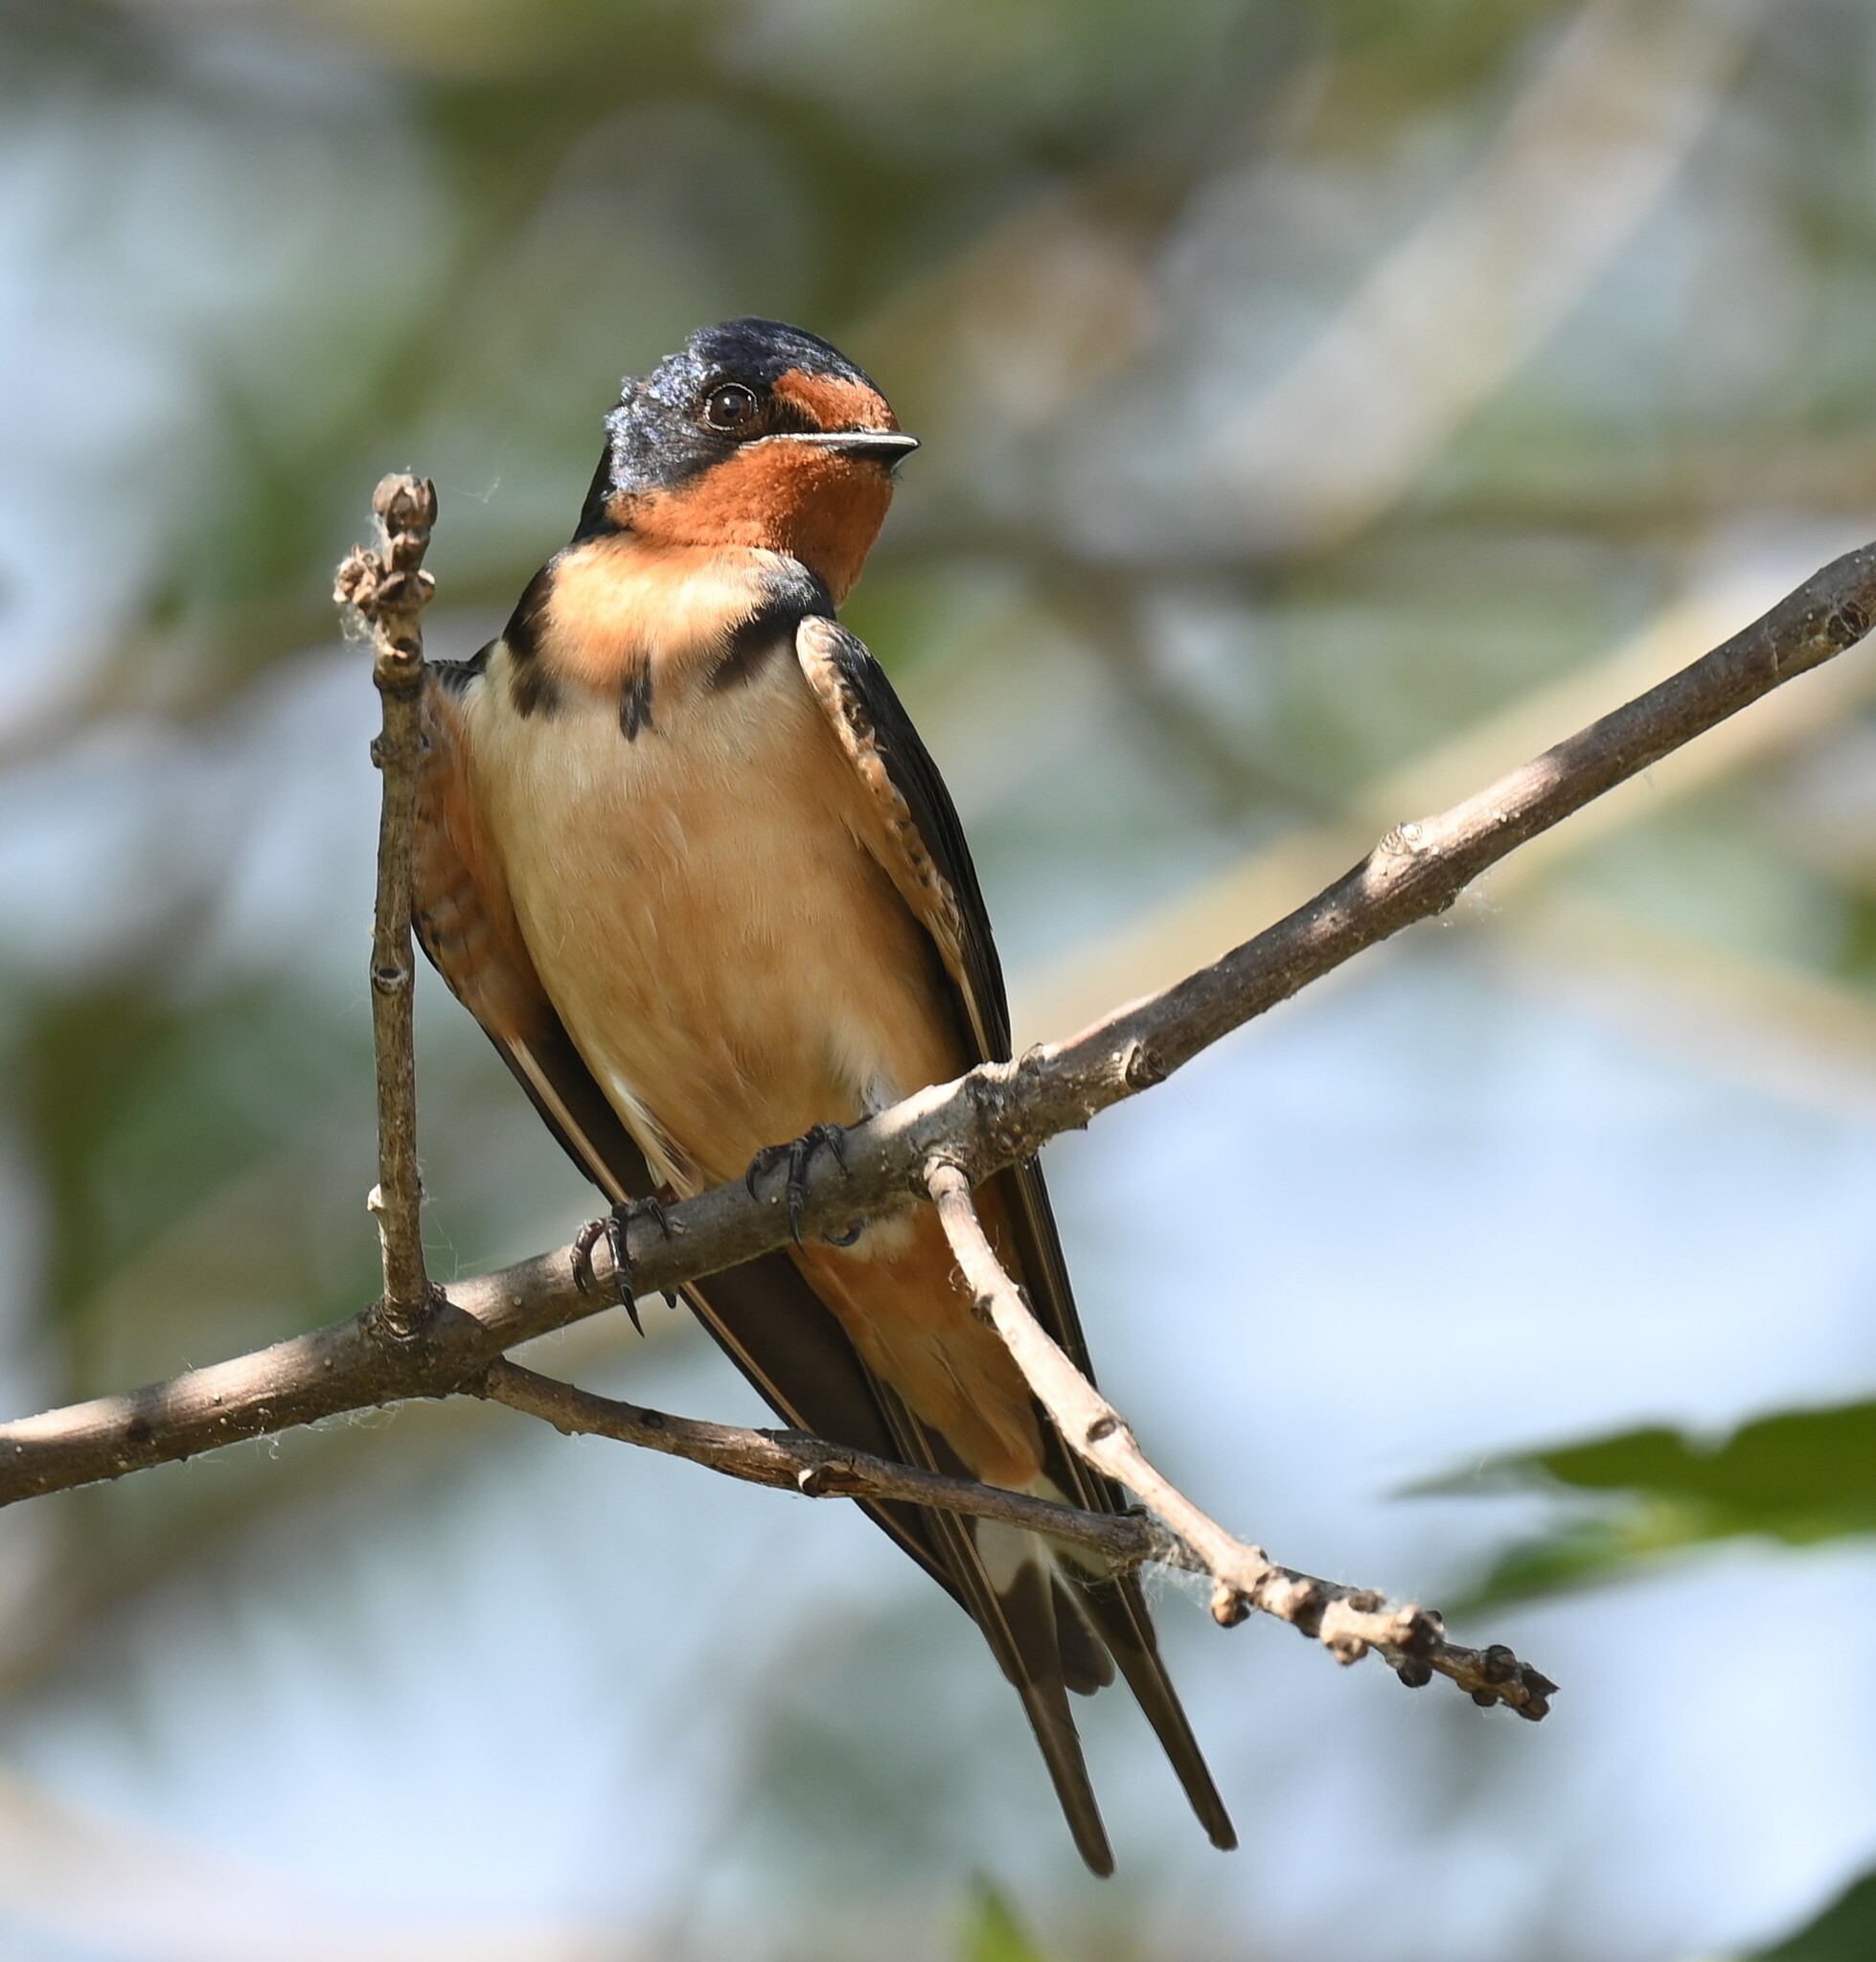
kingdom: Animalia
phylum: Chordata
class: Aves
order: Passeriformes
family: Hirundinidae
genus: Hirundo
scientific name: Hirundo rustica
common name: Barn swallow
